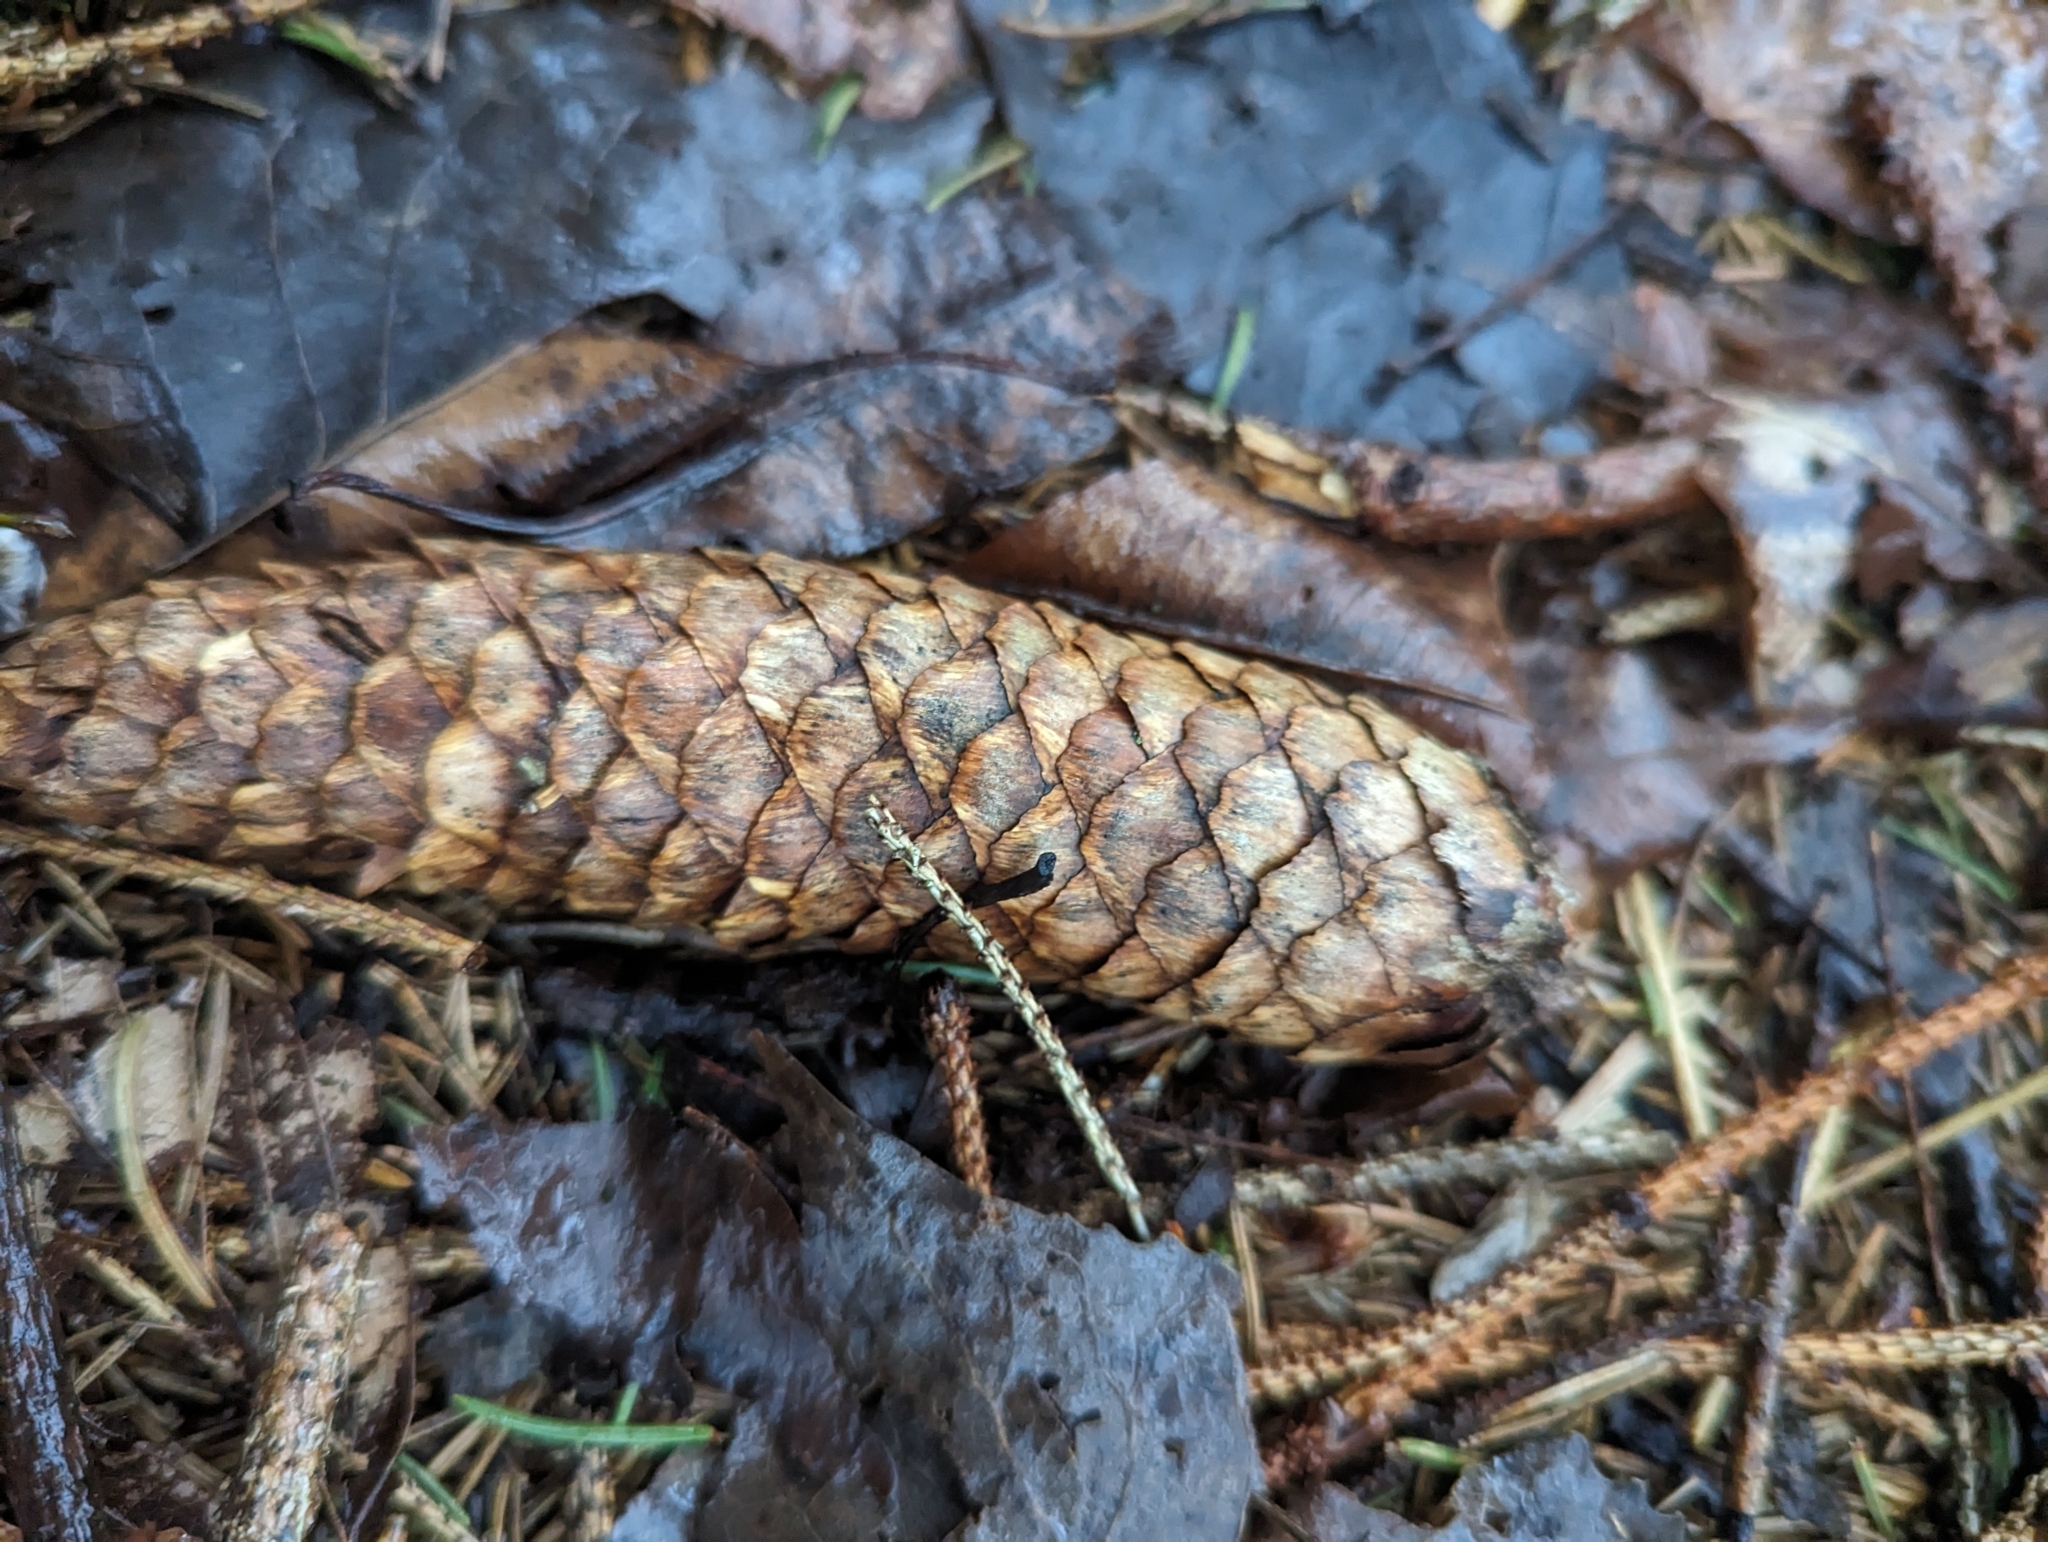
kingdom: Plantae
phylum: Tracheophyta
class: Pinopsida
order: Pinales
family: Pinaceae
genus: Picea
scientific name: Picea abies
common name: Norway spruce
